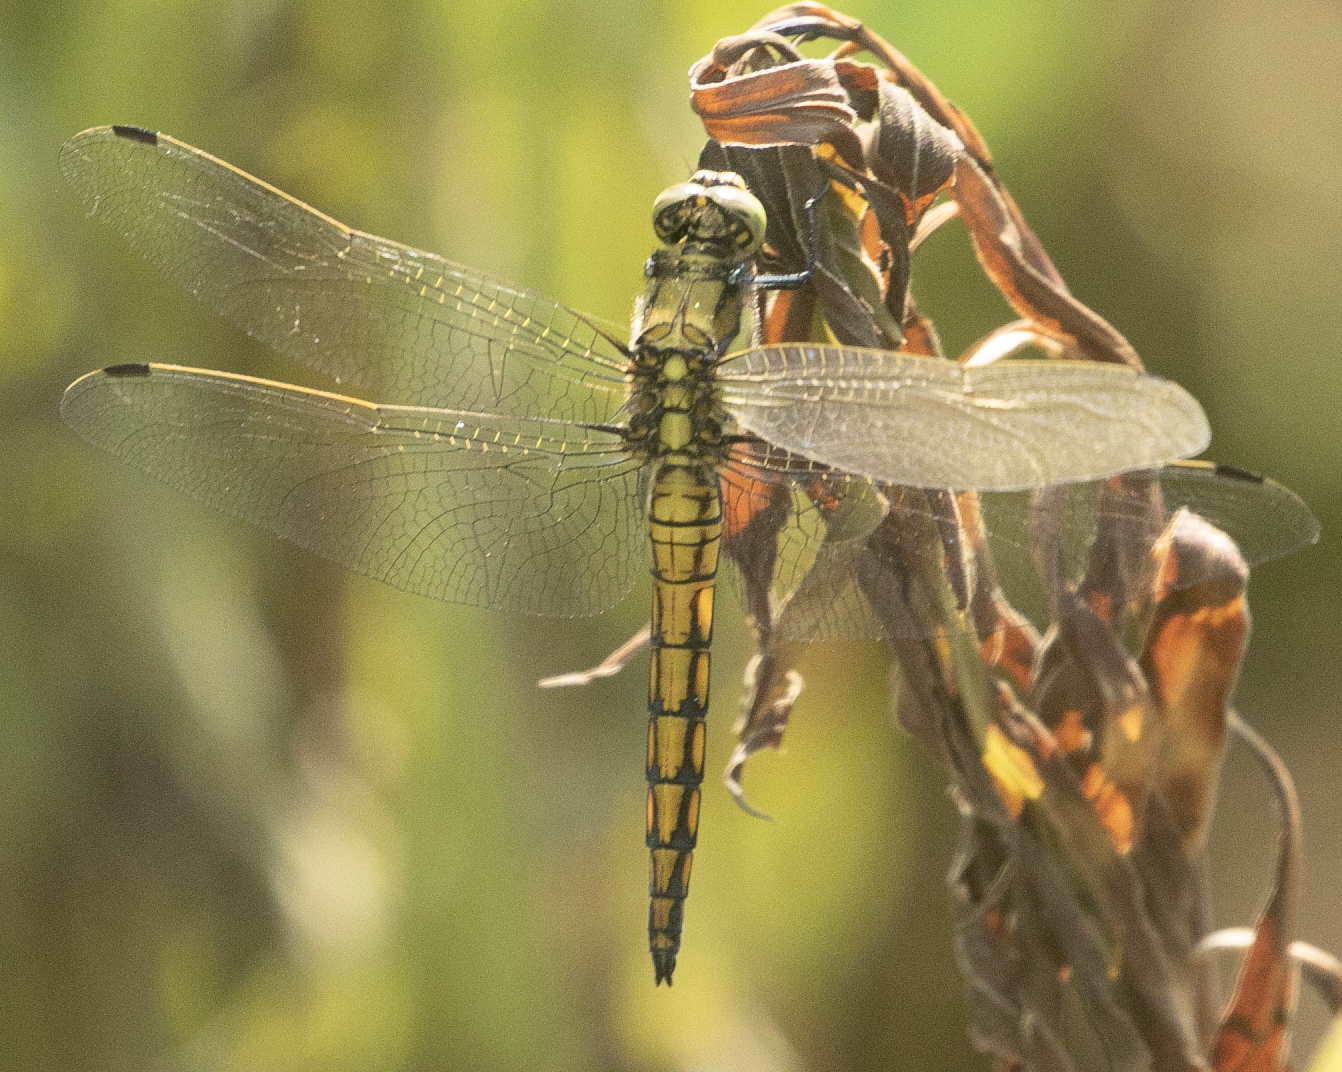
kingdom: Animalia
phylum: Arthropoda
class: Insecta
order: Odonata
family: Libellulidae
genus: Orthetrum
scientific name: Orthetrum cancellatum
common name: Black-tailed skimmer
